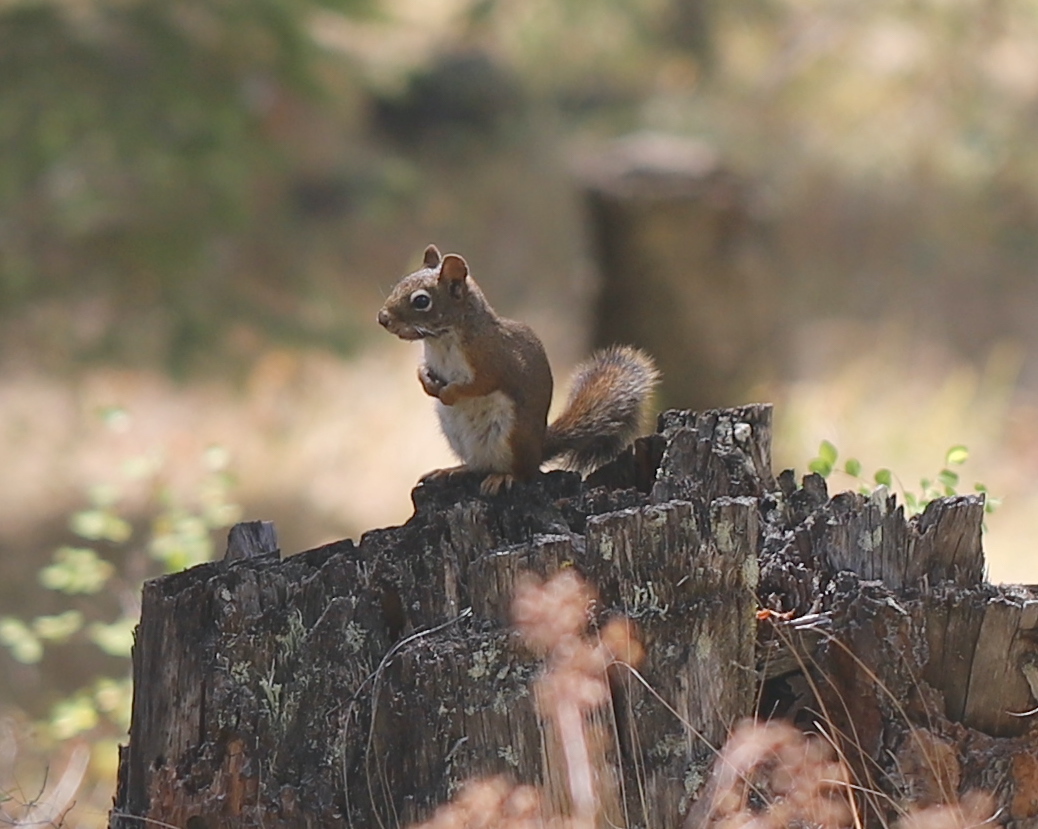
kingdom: Animalia
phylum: Chordata
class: Mammalia
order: Rodentia
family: Sciuridae
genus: Tamiasciurus
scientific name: Tamiasciurus hudsonicus
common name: Red squirrel
